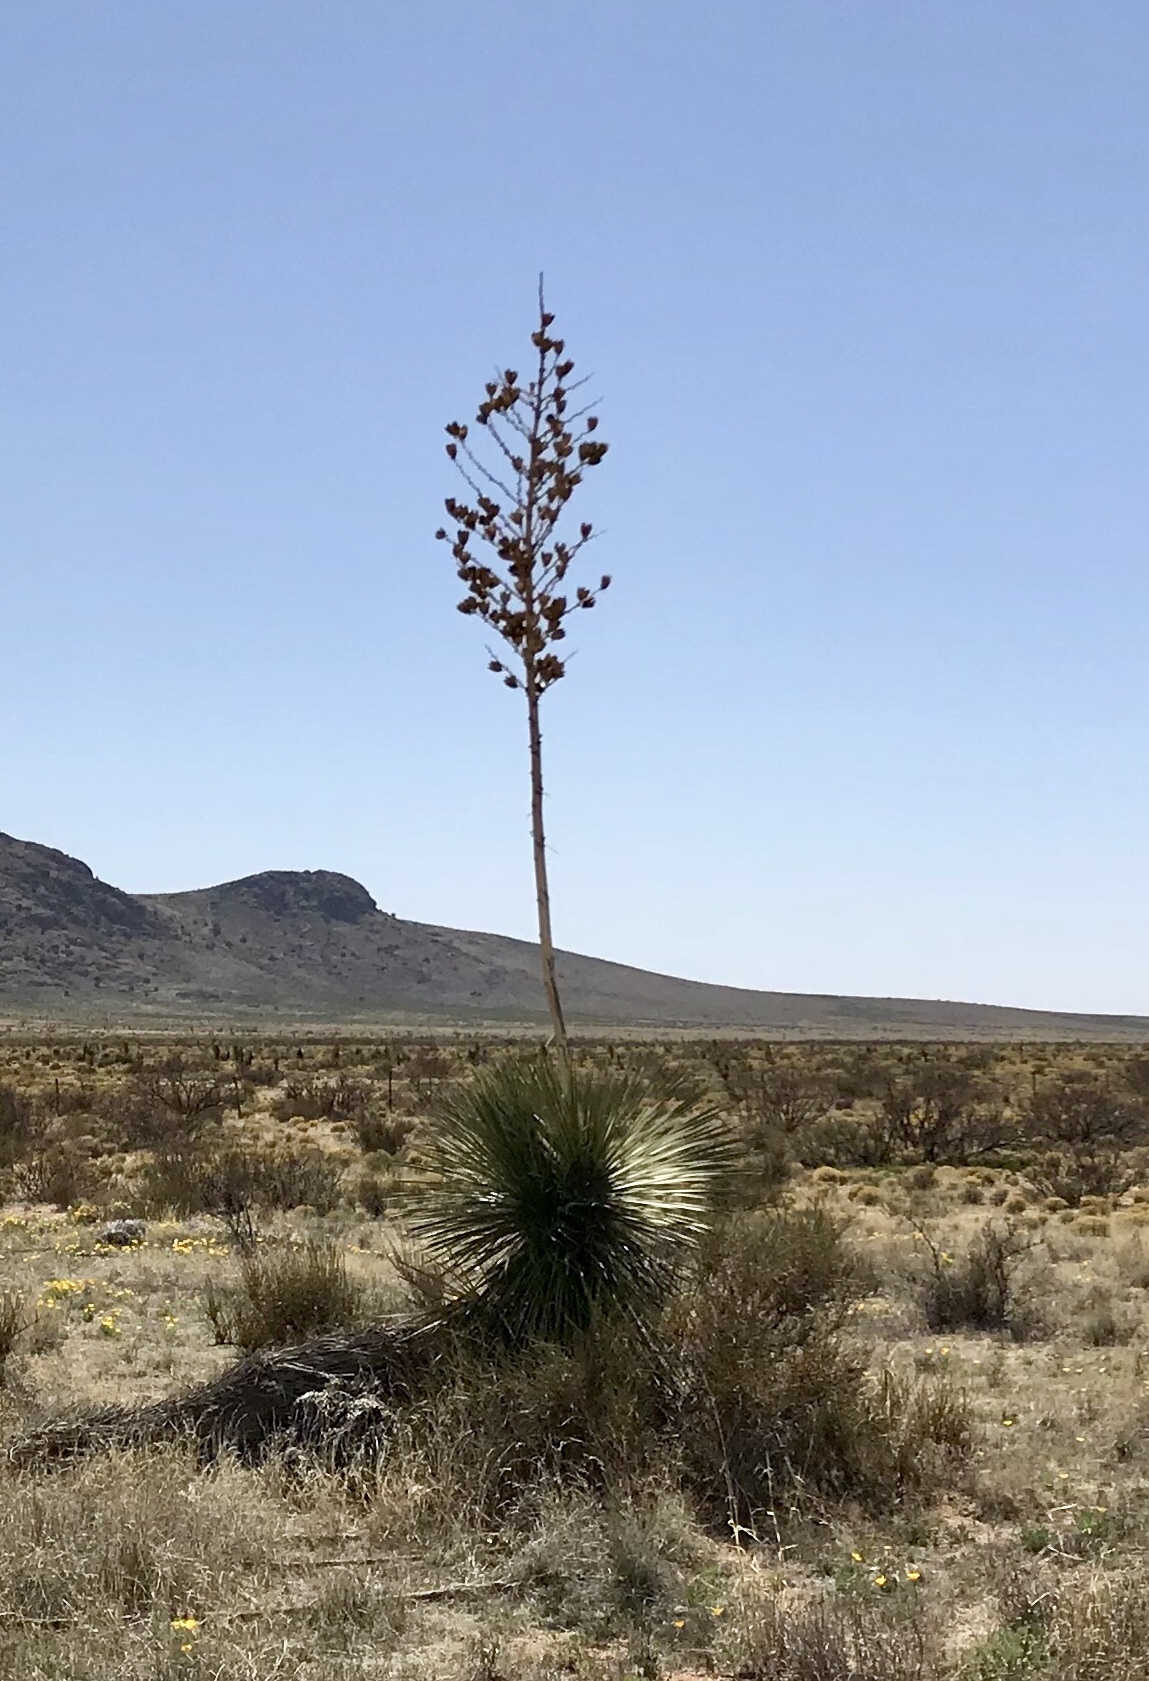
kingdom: Plantae
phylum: Tracheophyta
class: Liliopsida
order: Asparagales
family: Asparagaceae
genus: Yucca
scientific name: Yucca elata
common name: Palmella
